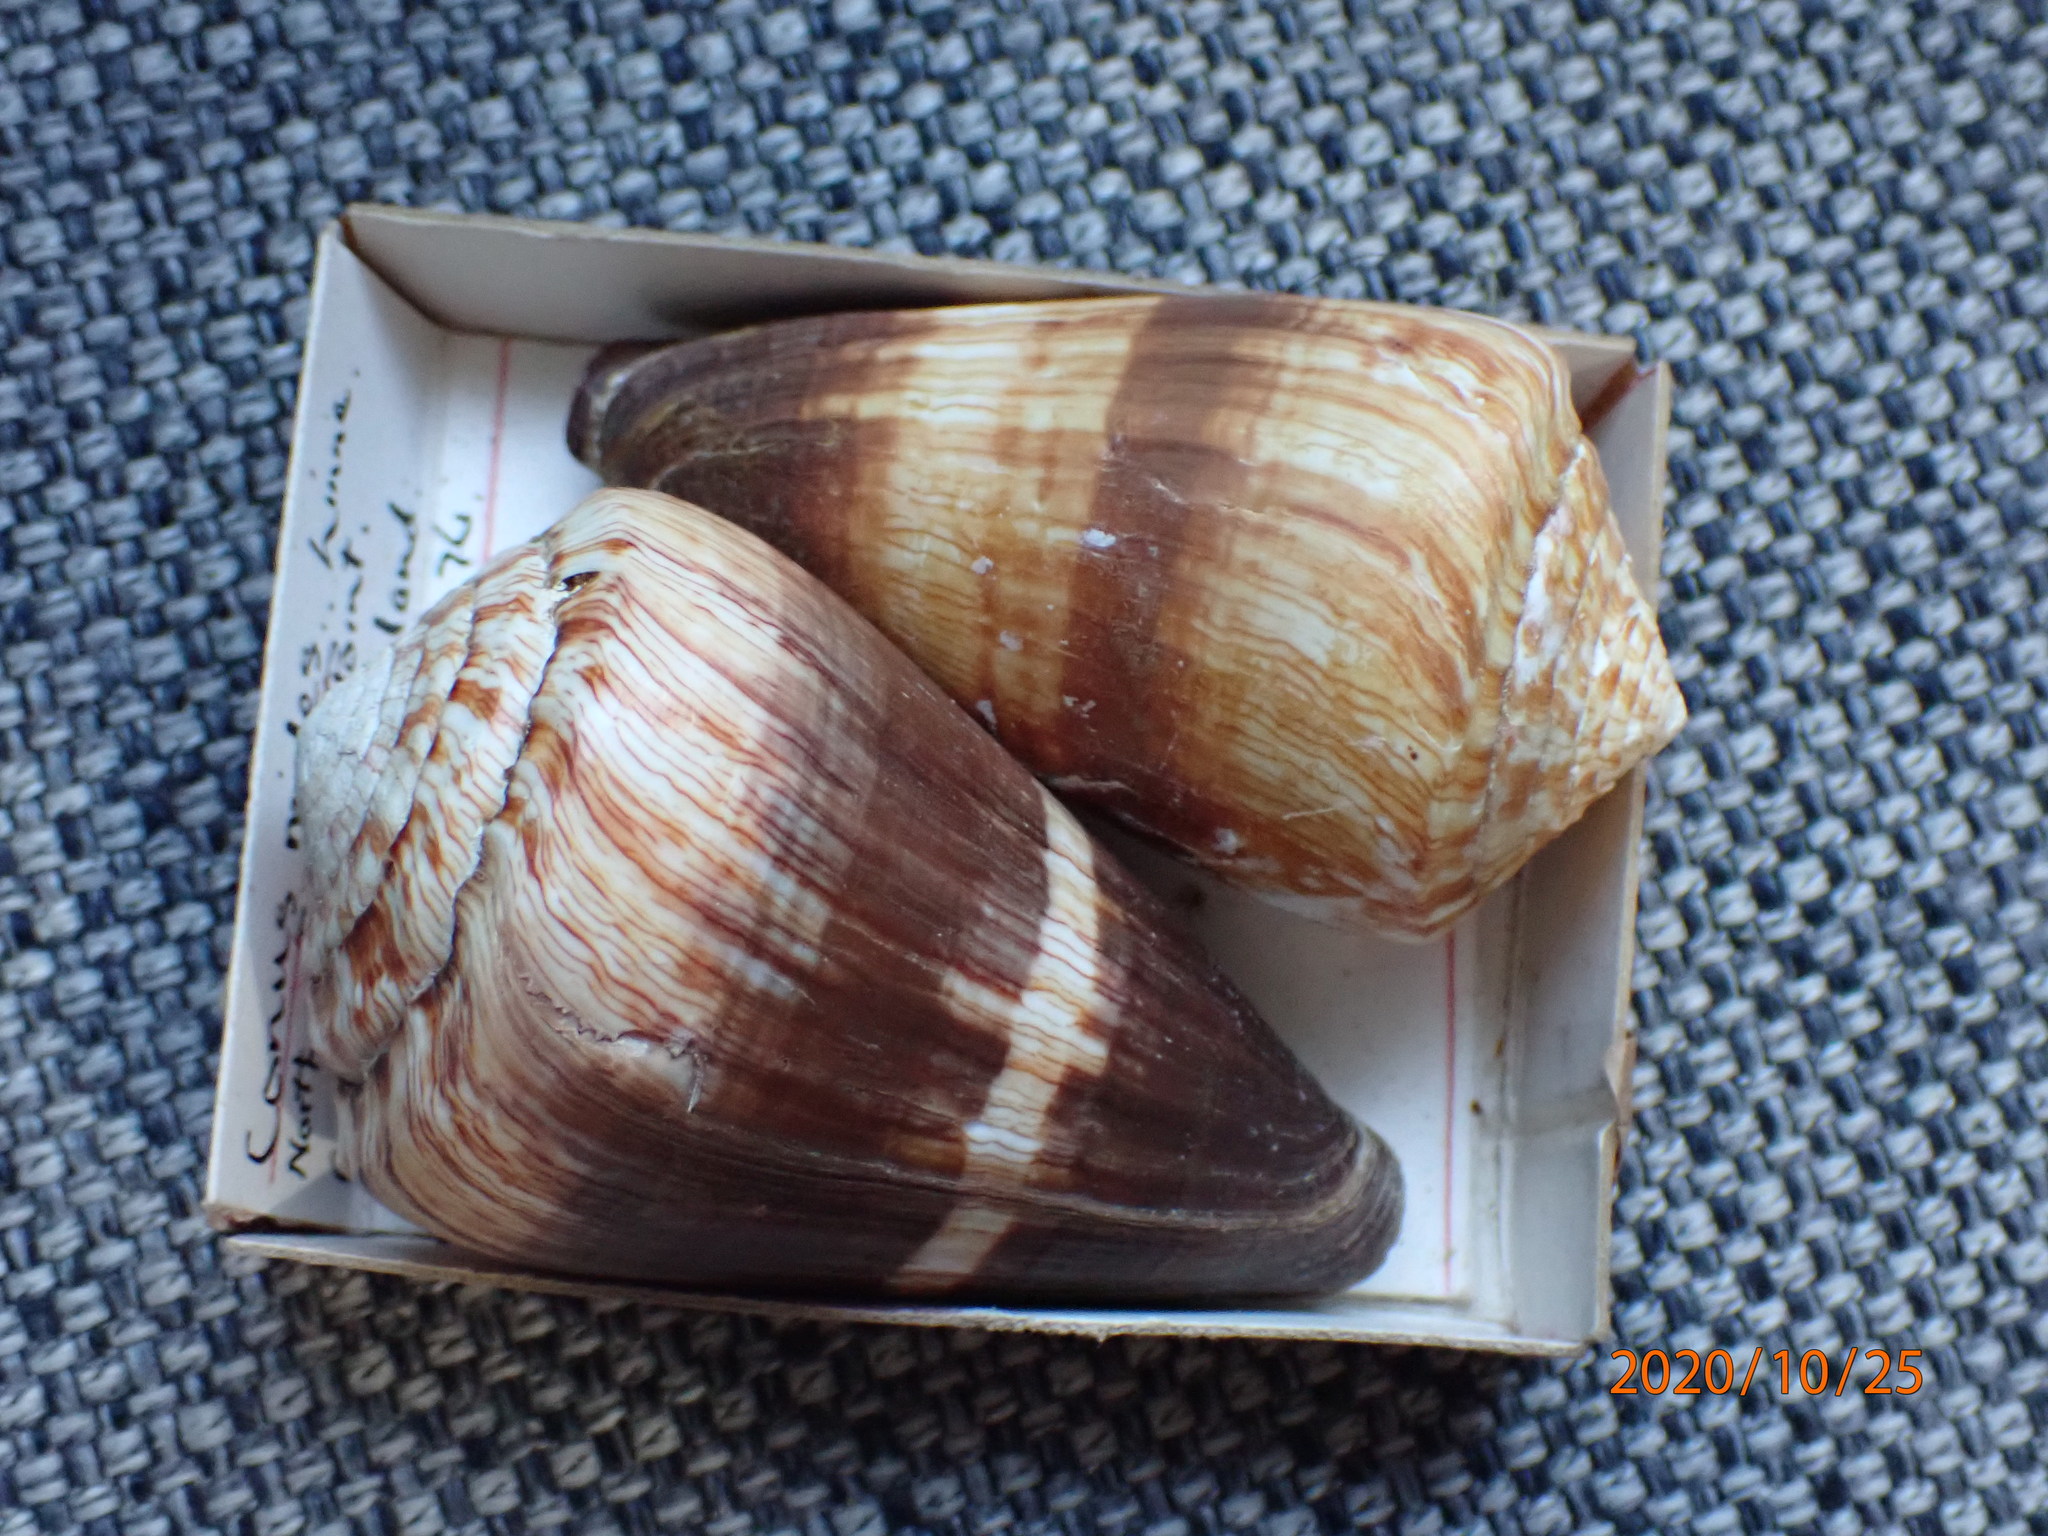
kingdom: Animalia
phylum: Mollusca
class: Gastropoda
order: Neogastropoda
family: Conidae
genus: Conus
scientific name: Conus miles
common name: Soldier cone
